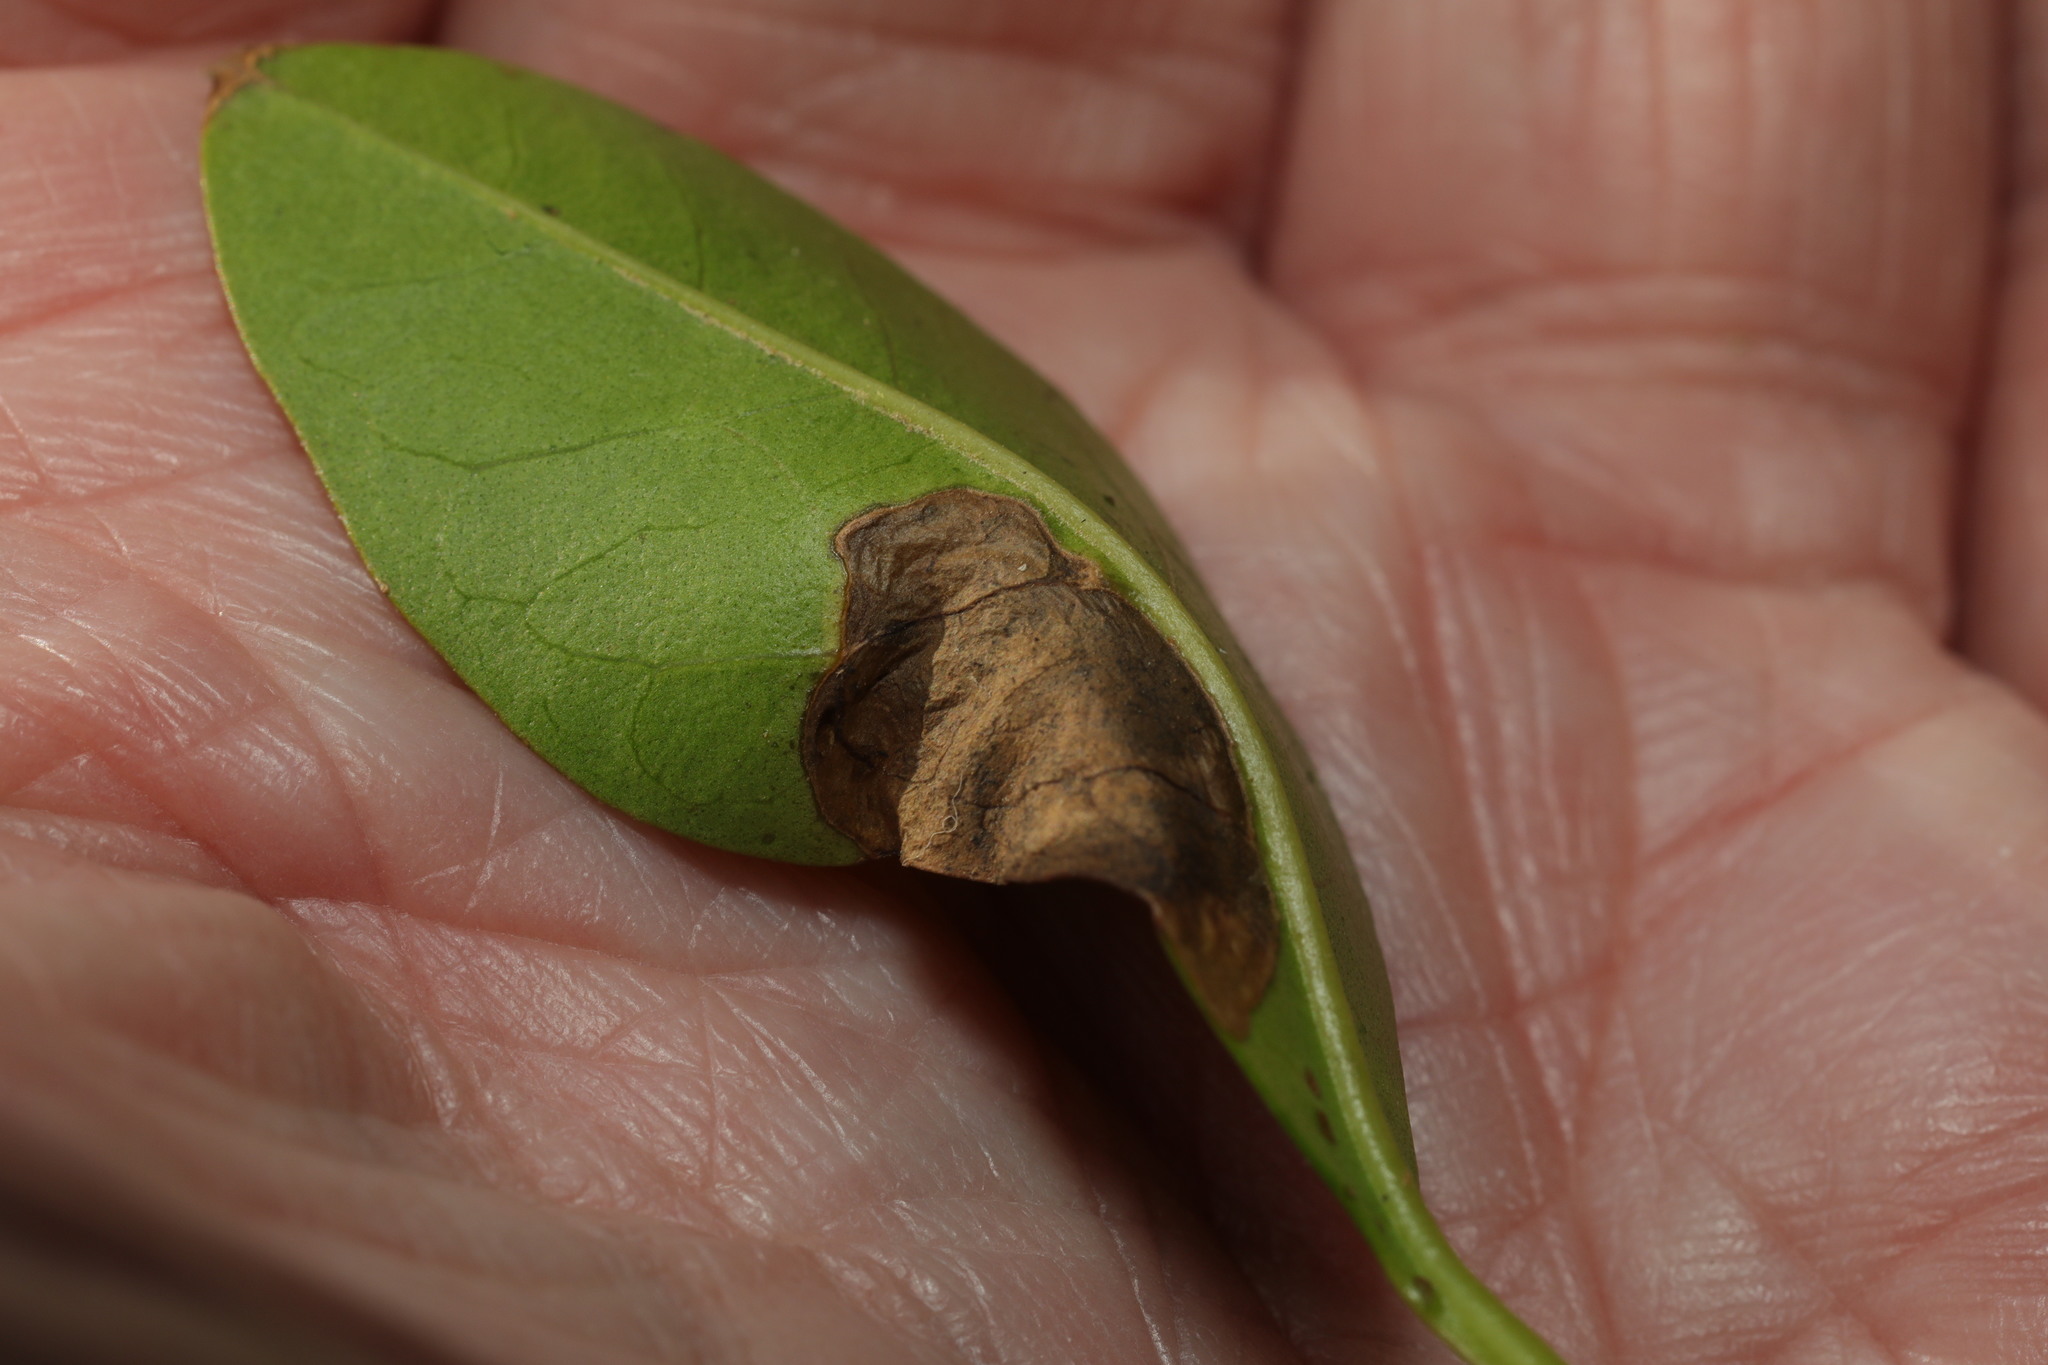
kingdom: Animalia
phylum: Arthropoda
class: Insecta
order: Lepidoptera
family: Gracillariidae
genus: Gracillaria
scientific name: Gracillaria syringella
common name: Common slender
